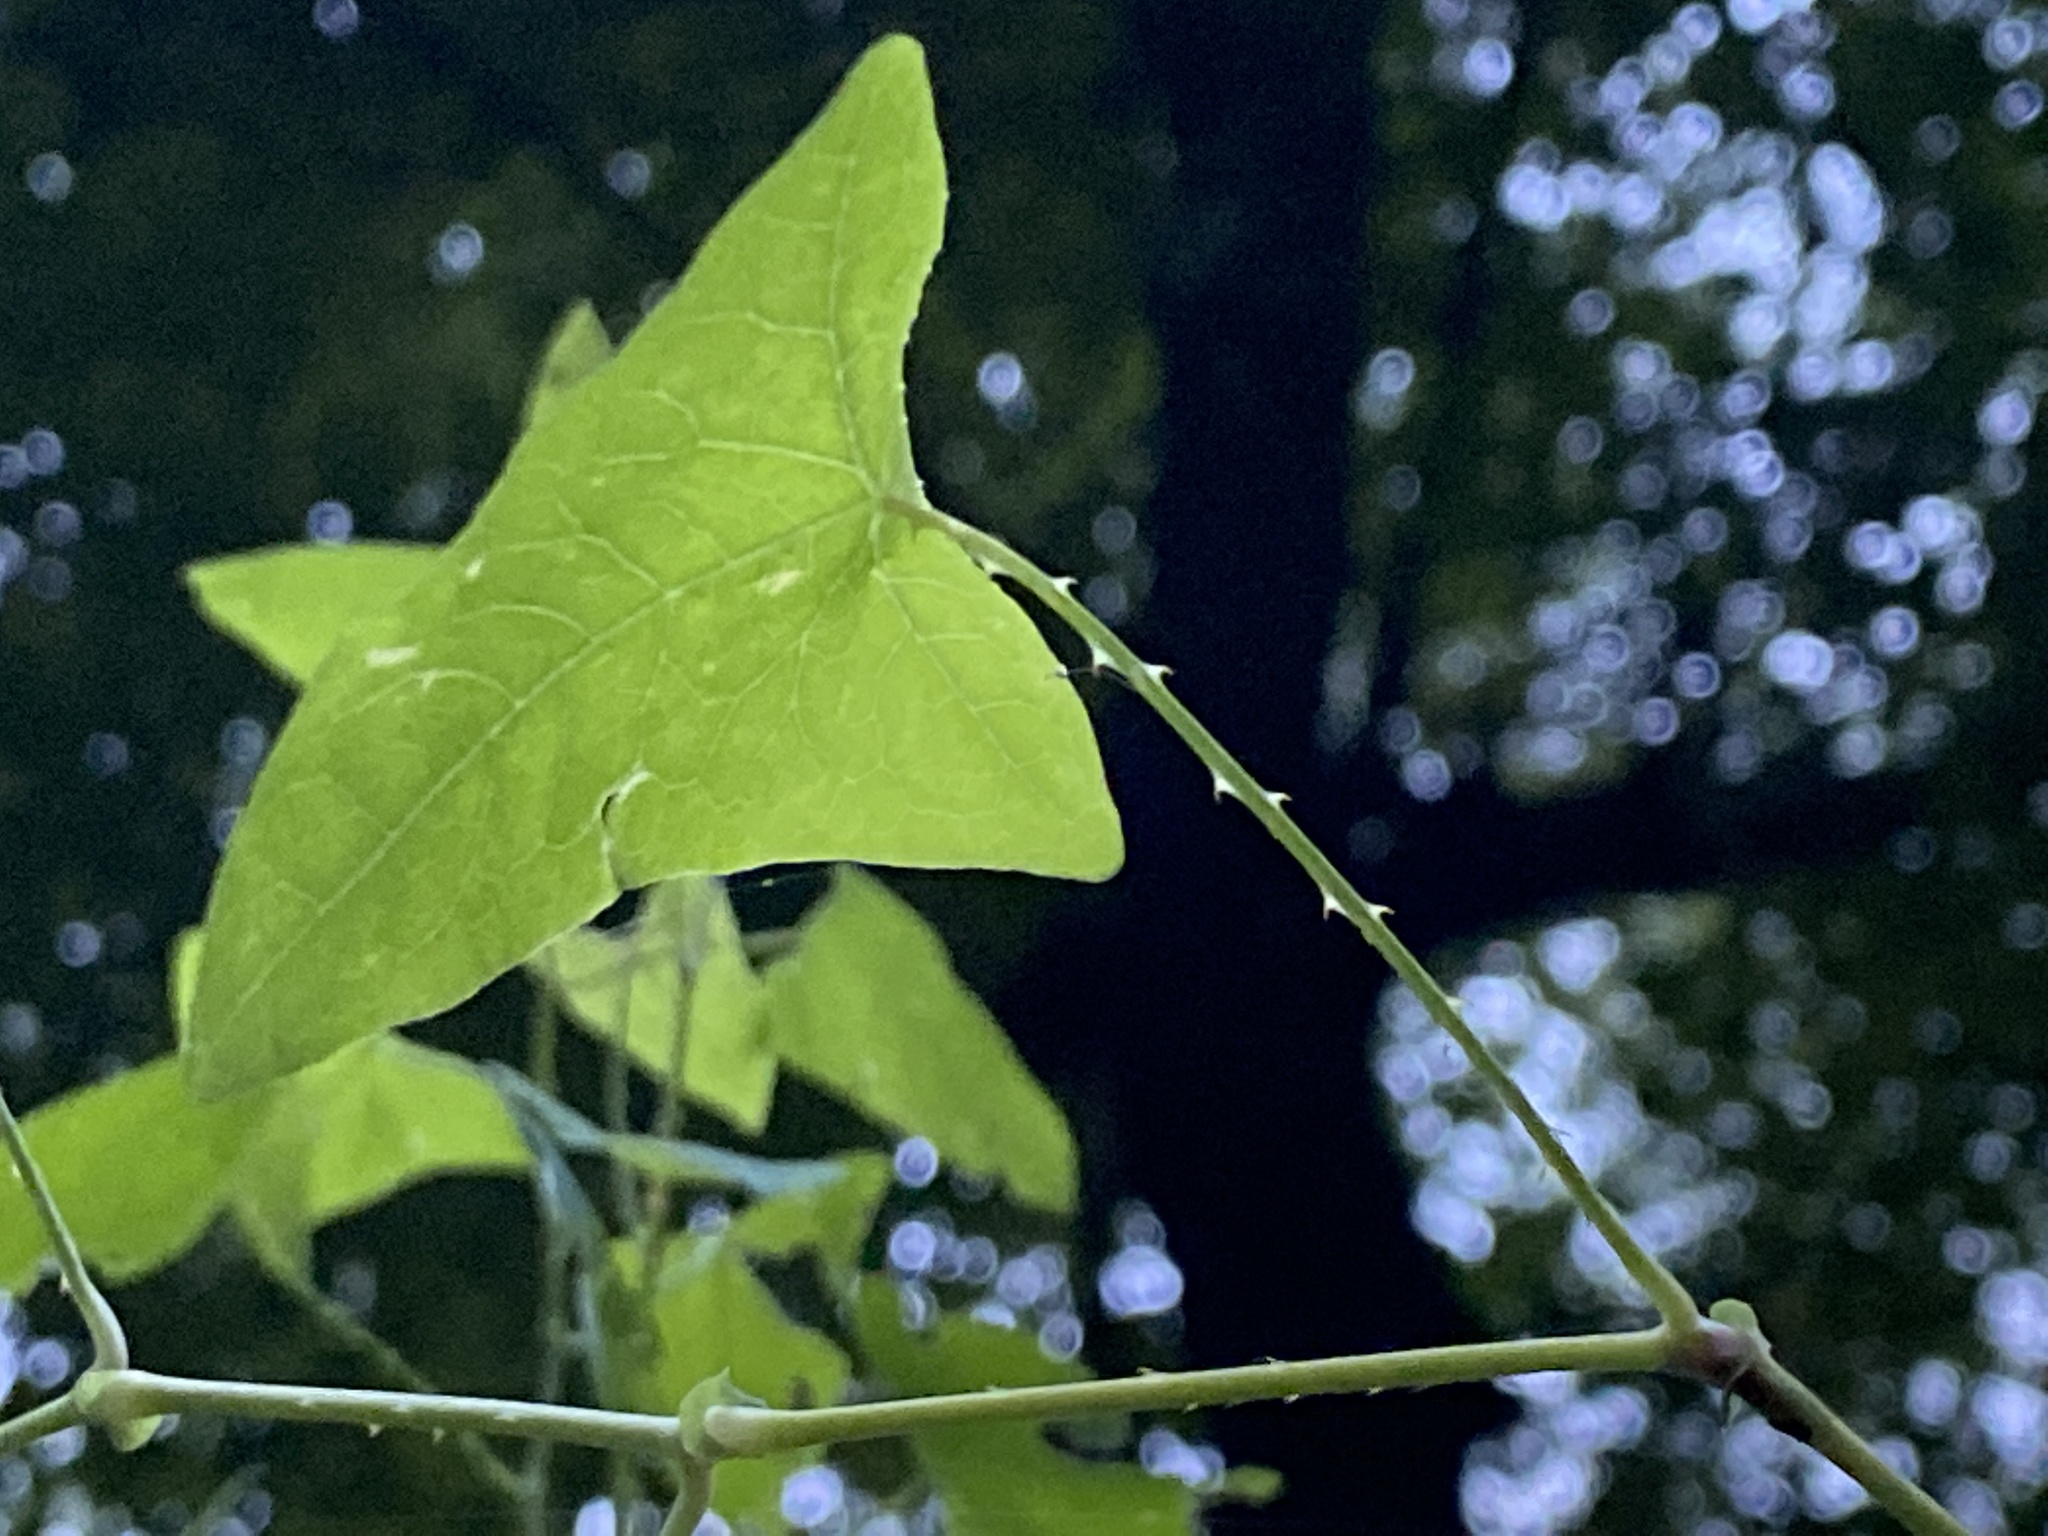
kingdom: Plantae
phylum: Tracheophyta
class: Magnoliopsida
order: Caryophyllales
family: Polygonaceae
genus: Persicaria
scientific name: Persicaria perfoliata
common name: Asiatic tearthumb
